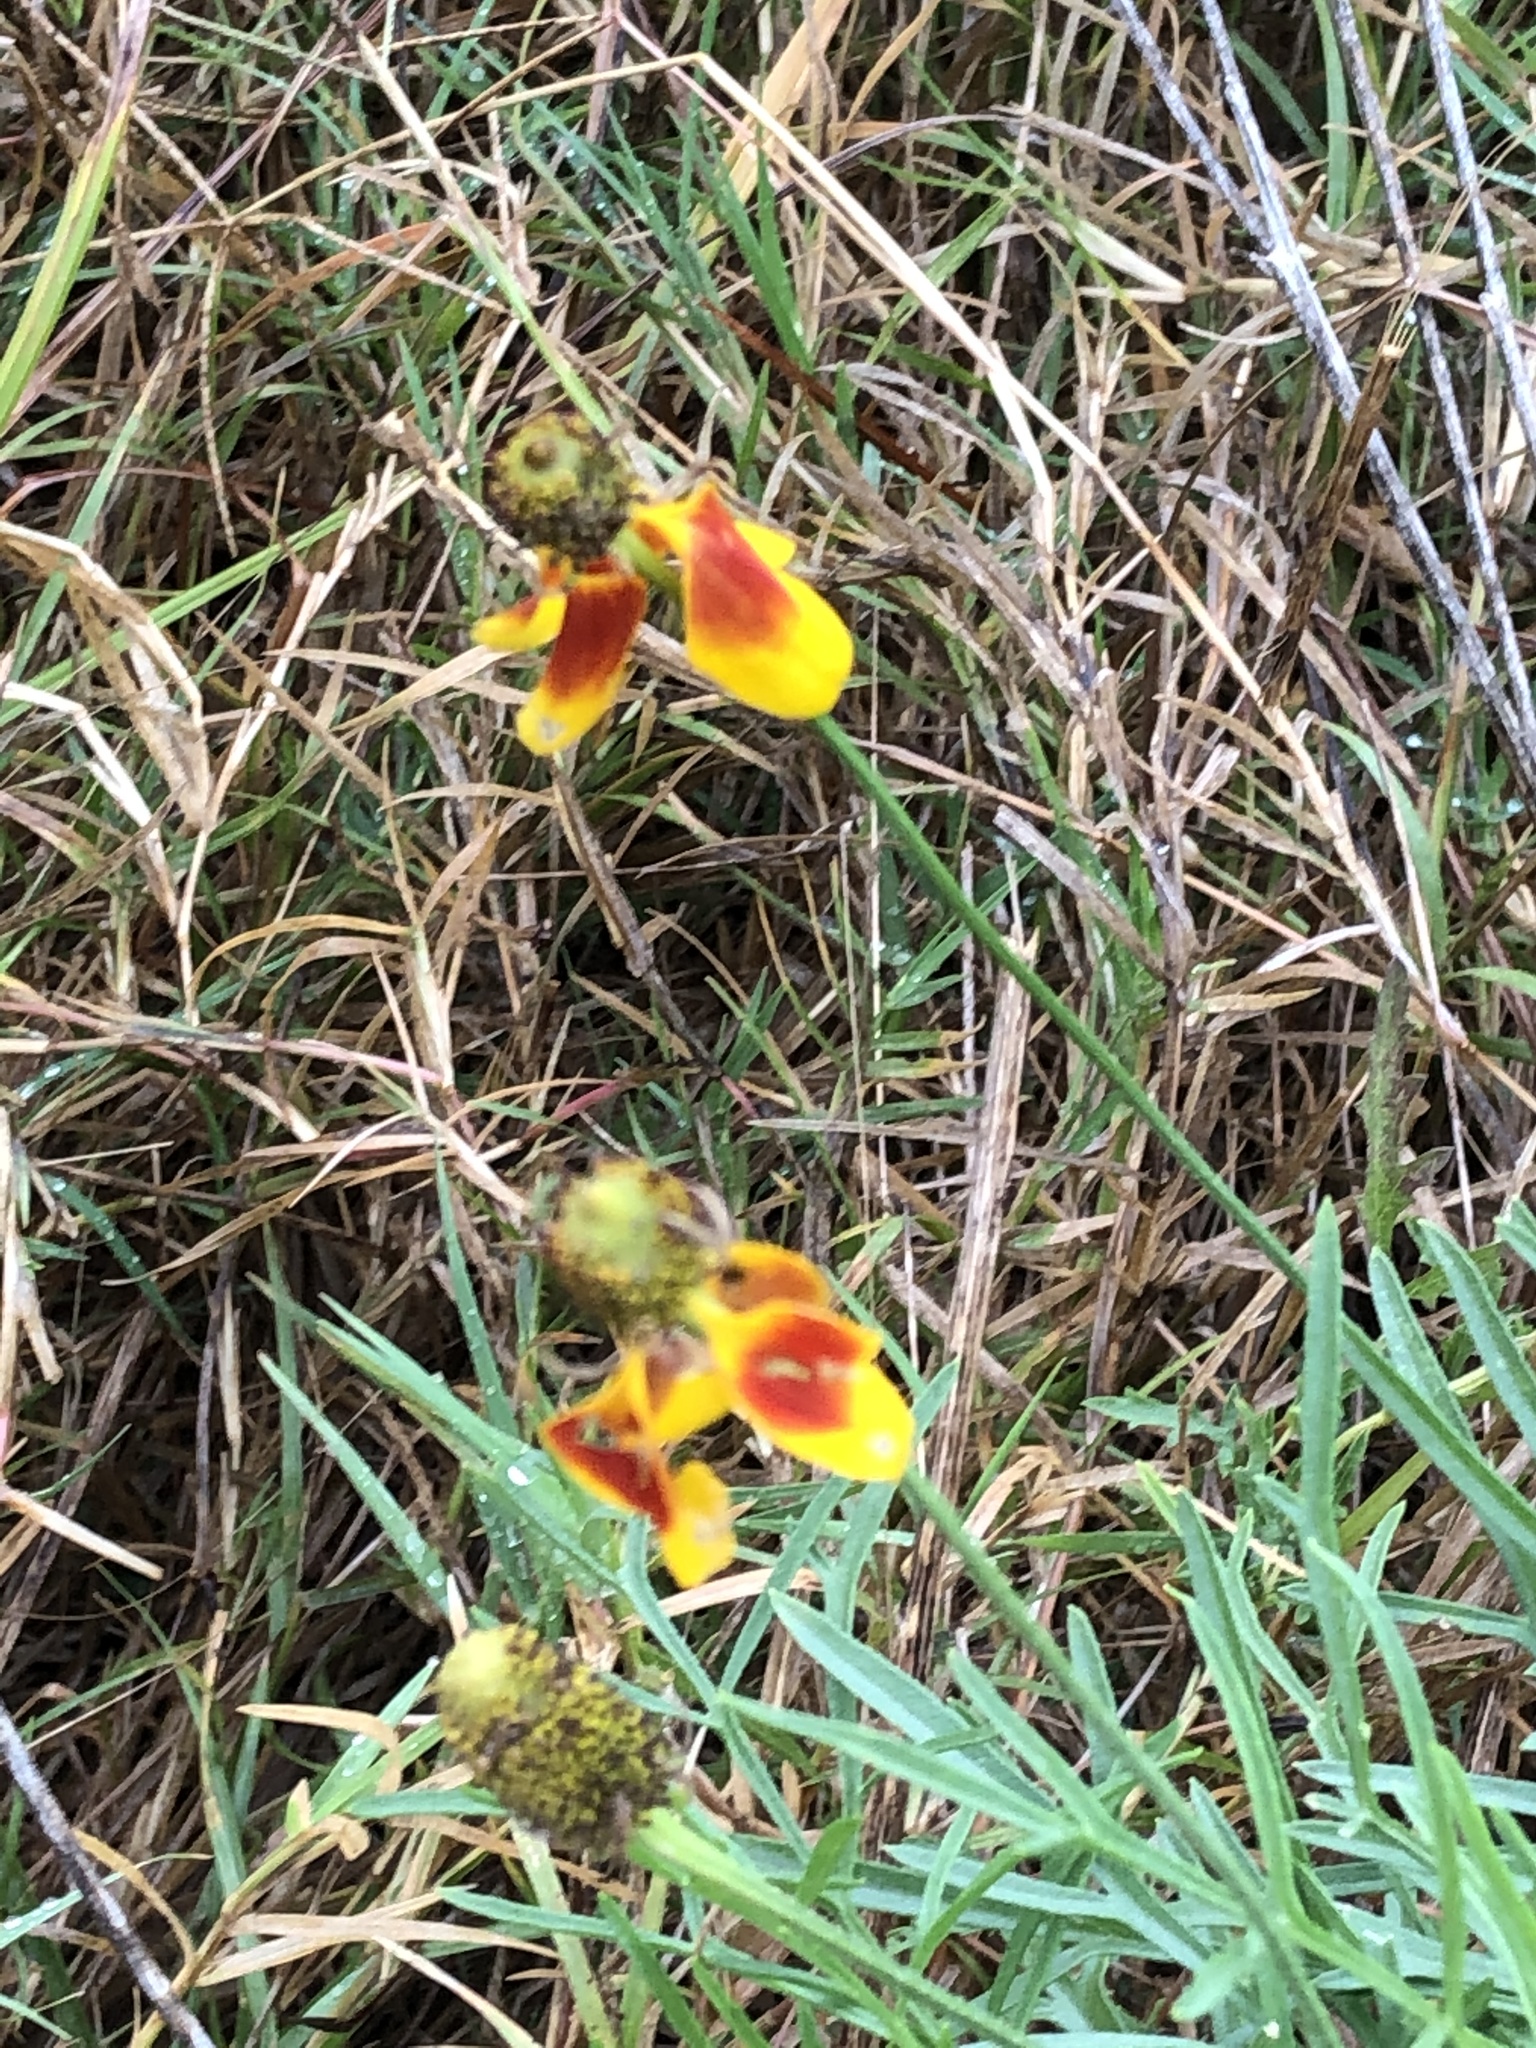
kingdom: Plantae
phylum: Tracheophyta
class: Magnoliopsida
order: Asterales
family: Asteraceae
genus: Ratibida
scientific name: Ratibida columnifera
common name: Prairie coneflower
